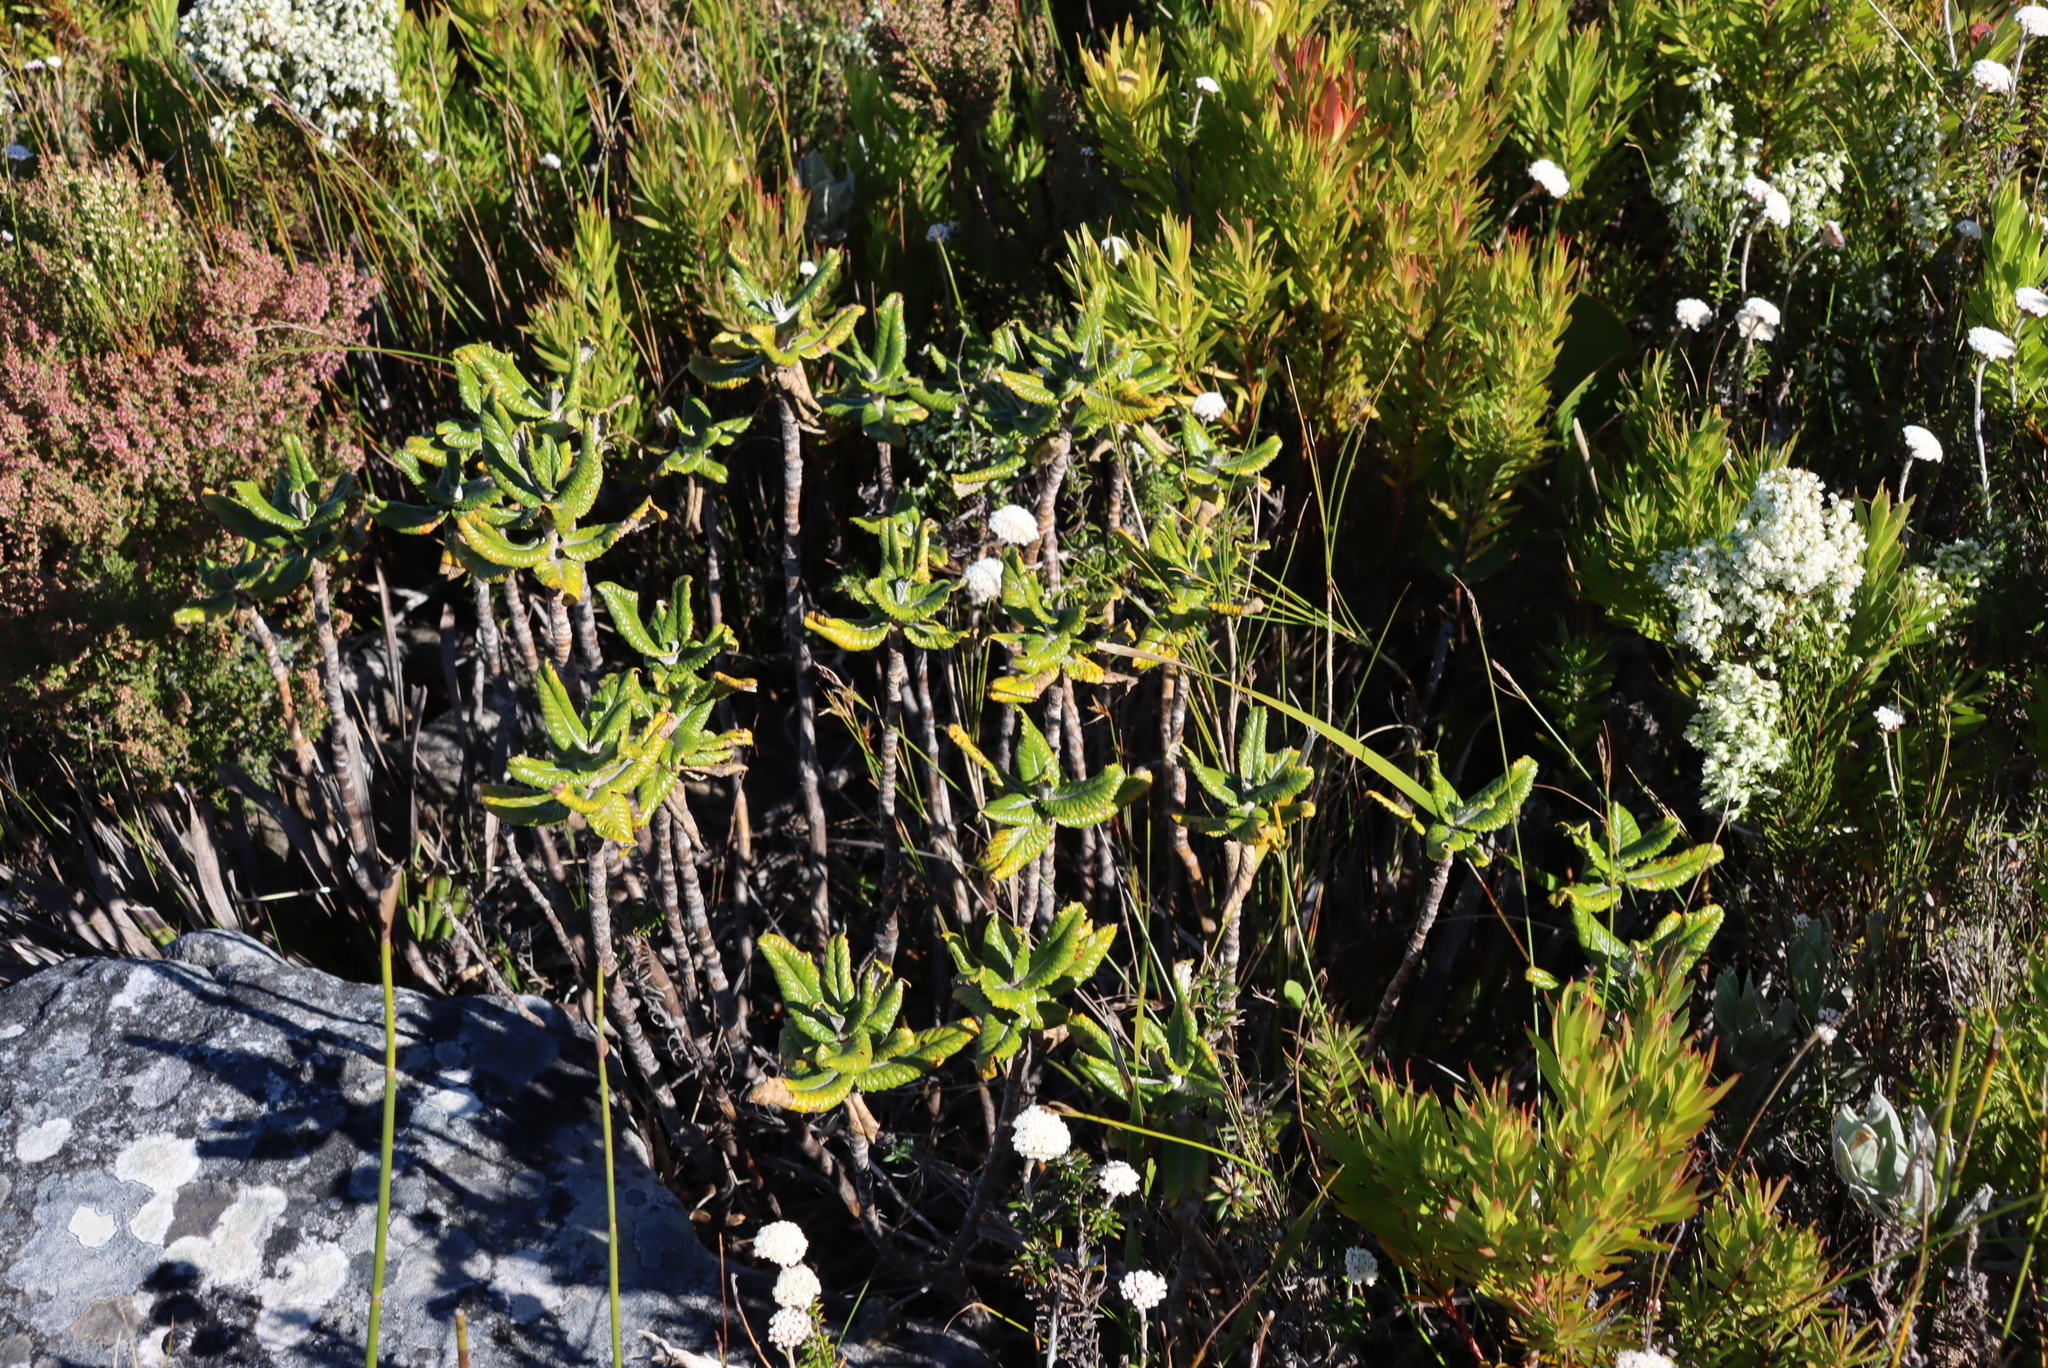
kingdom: Plantae
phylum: Tracheophyta
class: Magnoliopsida
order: Apiales
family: Apiaceae
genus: Hermas
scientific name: Hermas villosa
